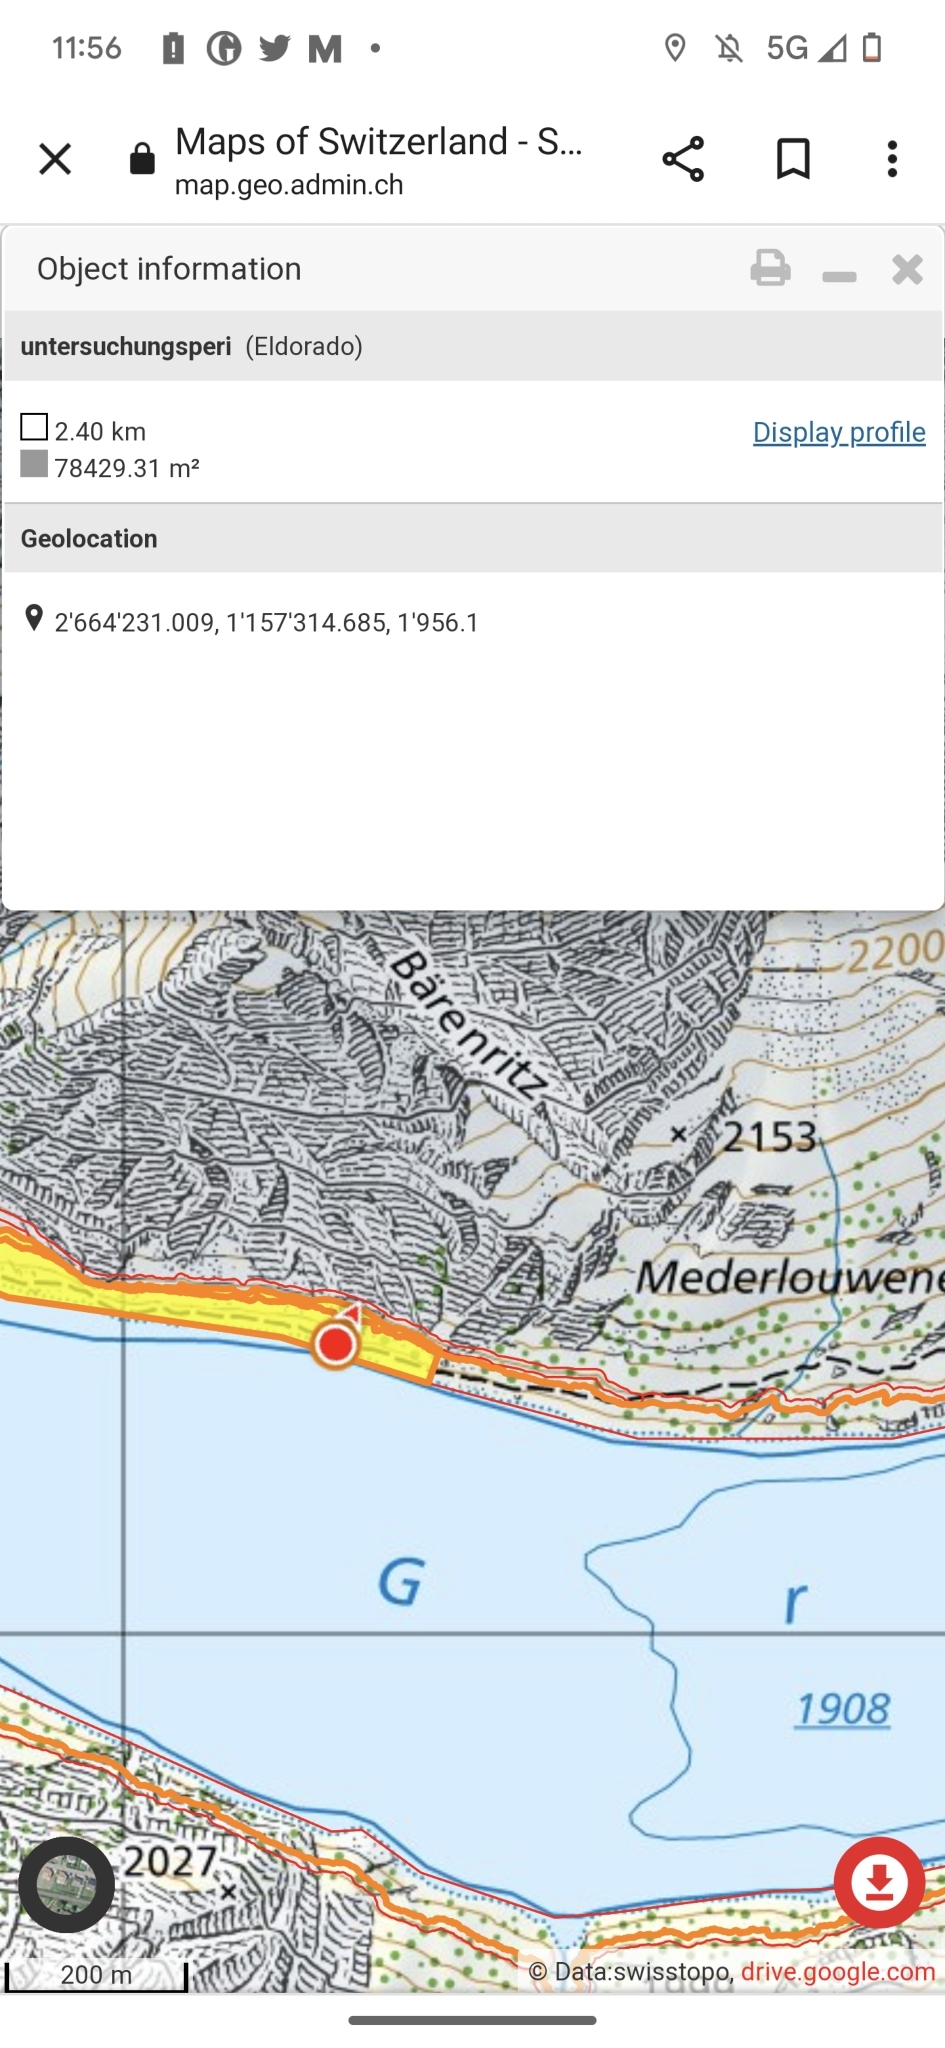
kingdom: Animalia
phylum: Arthropoda
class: Insecta
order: Hymenoptera
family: Formicidae
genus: Formica
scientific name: Formica
